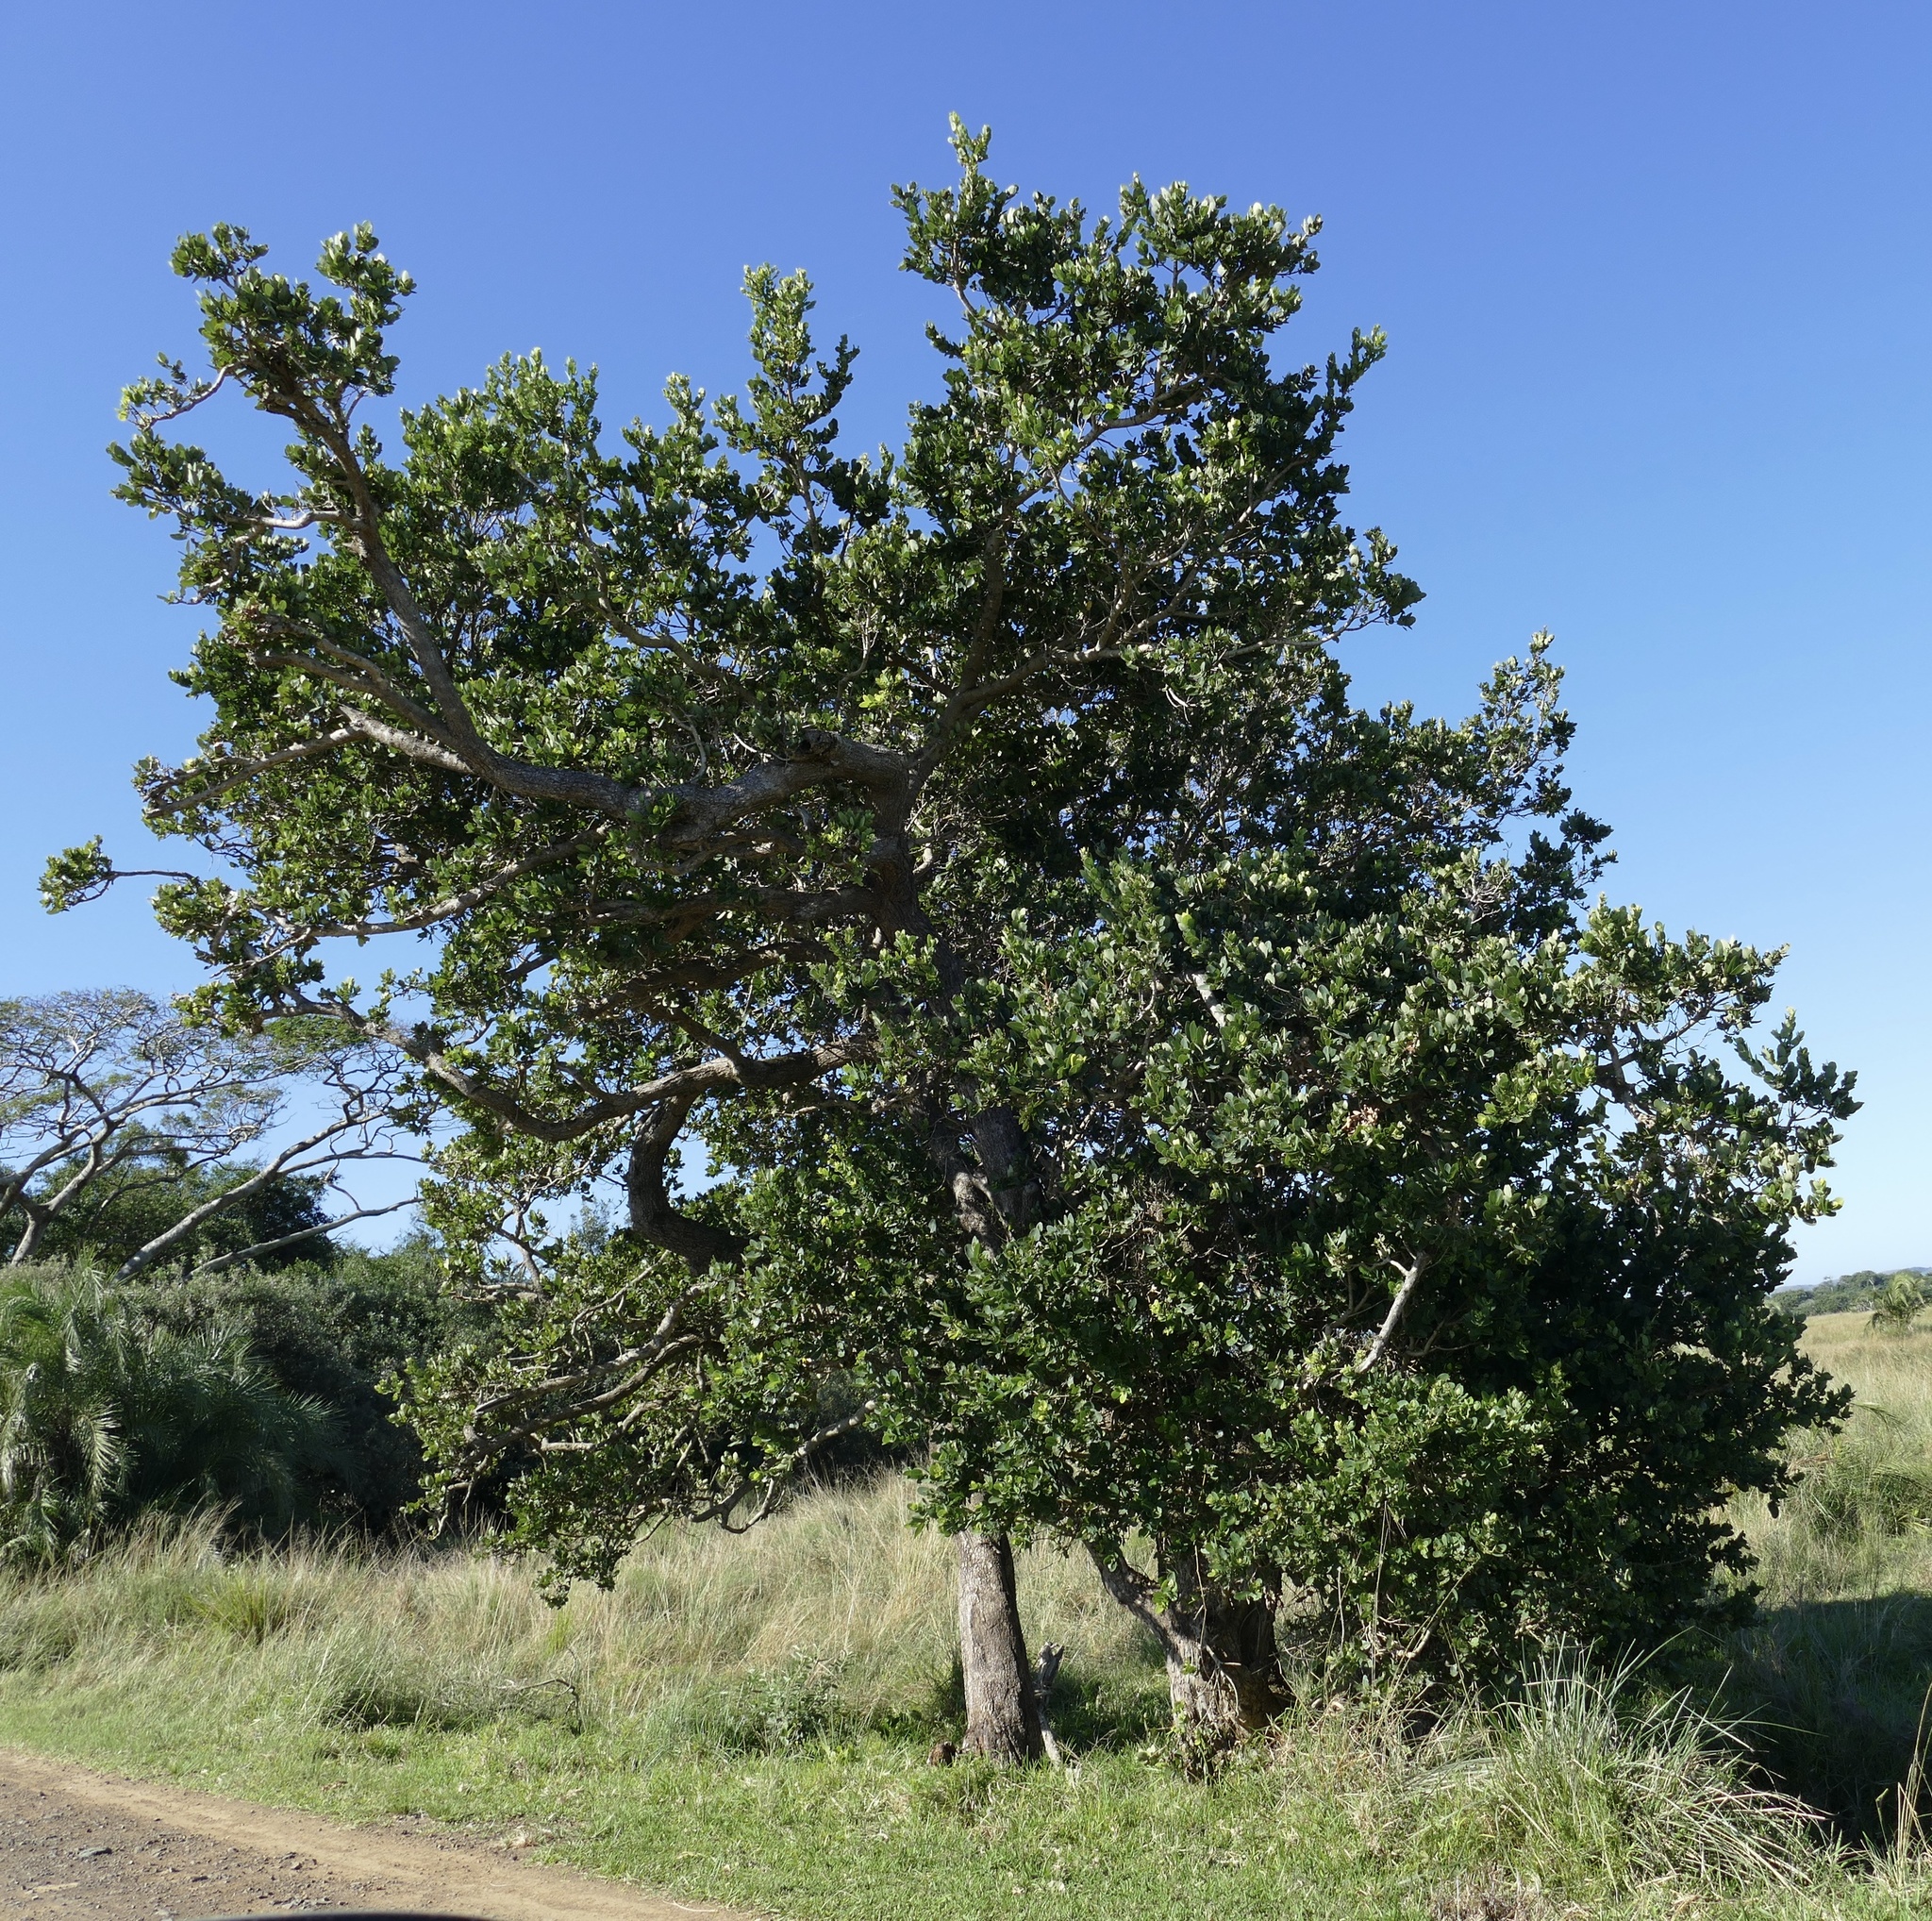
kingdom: Plantae
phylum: Tracheophyta
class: Magnoliopsida
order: Myrtales
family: Myrtaceae
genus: Syzygium
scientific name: Syzygium cordatum
